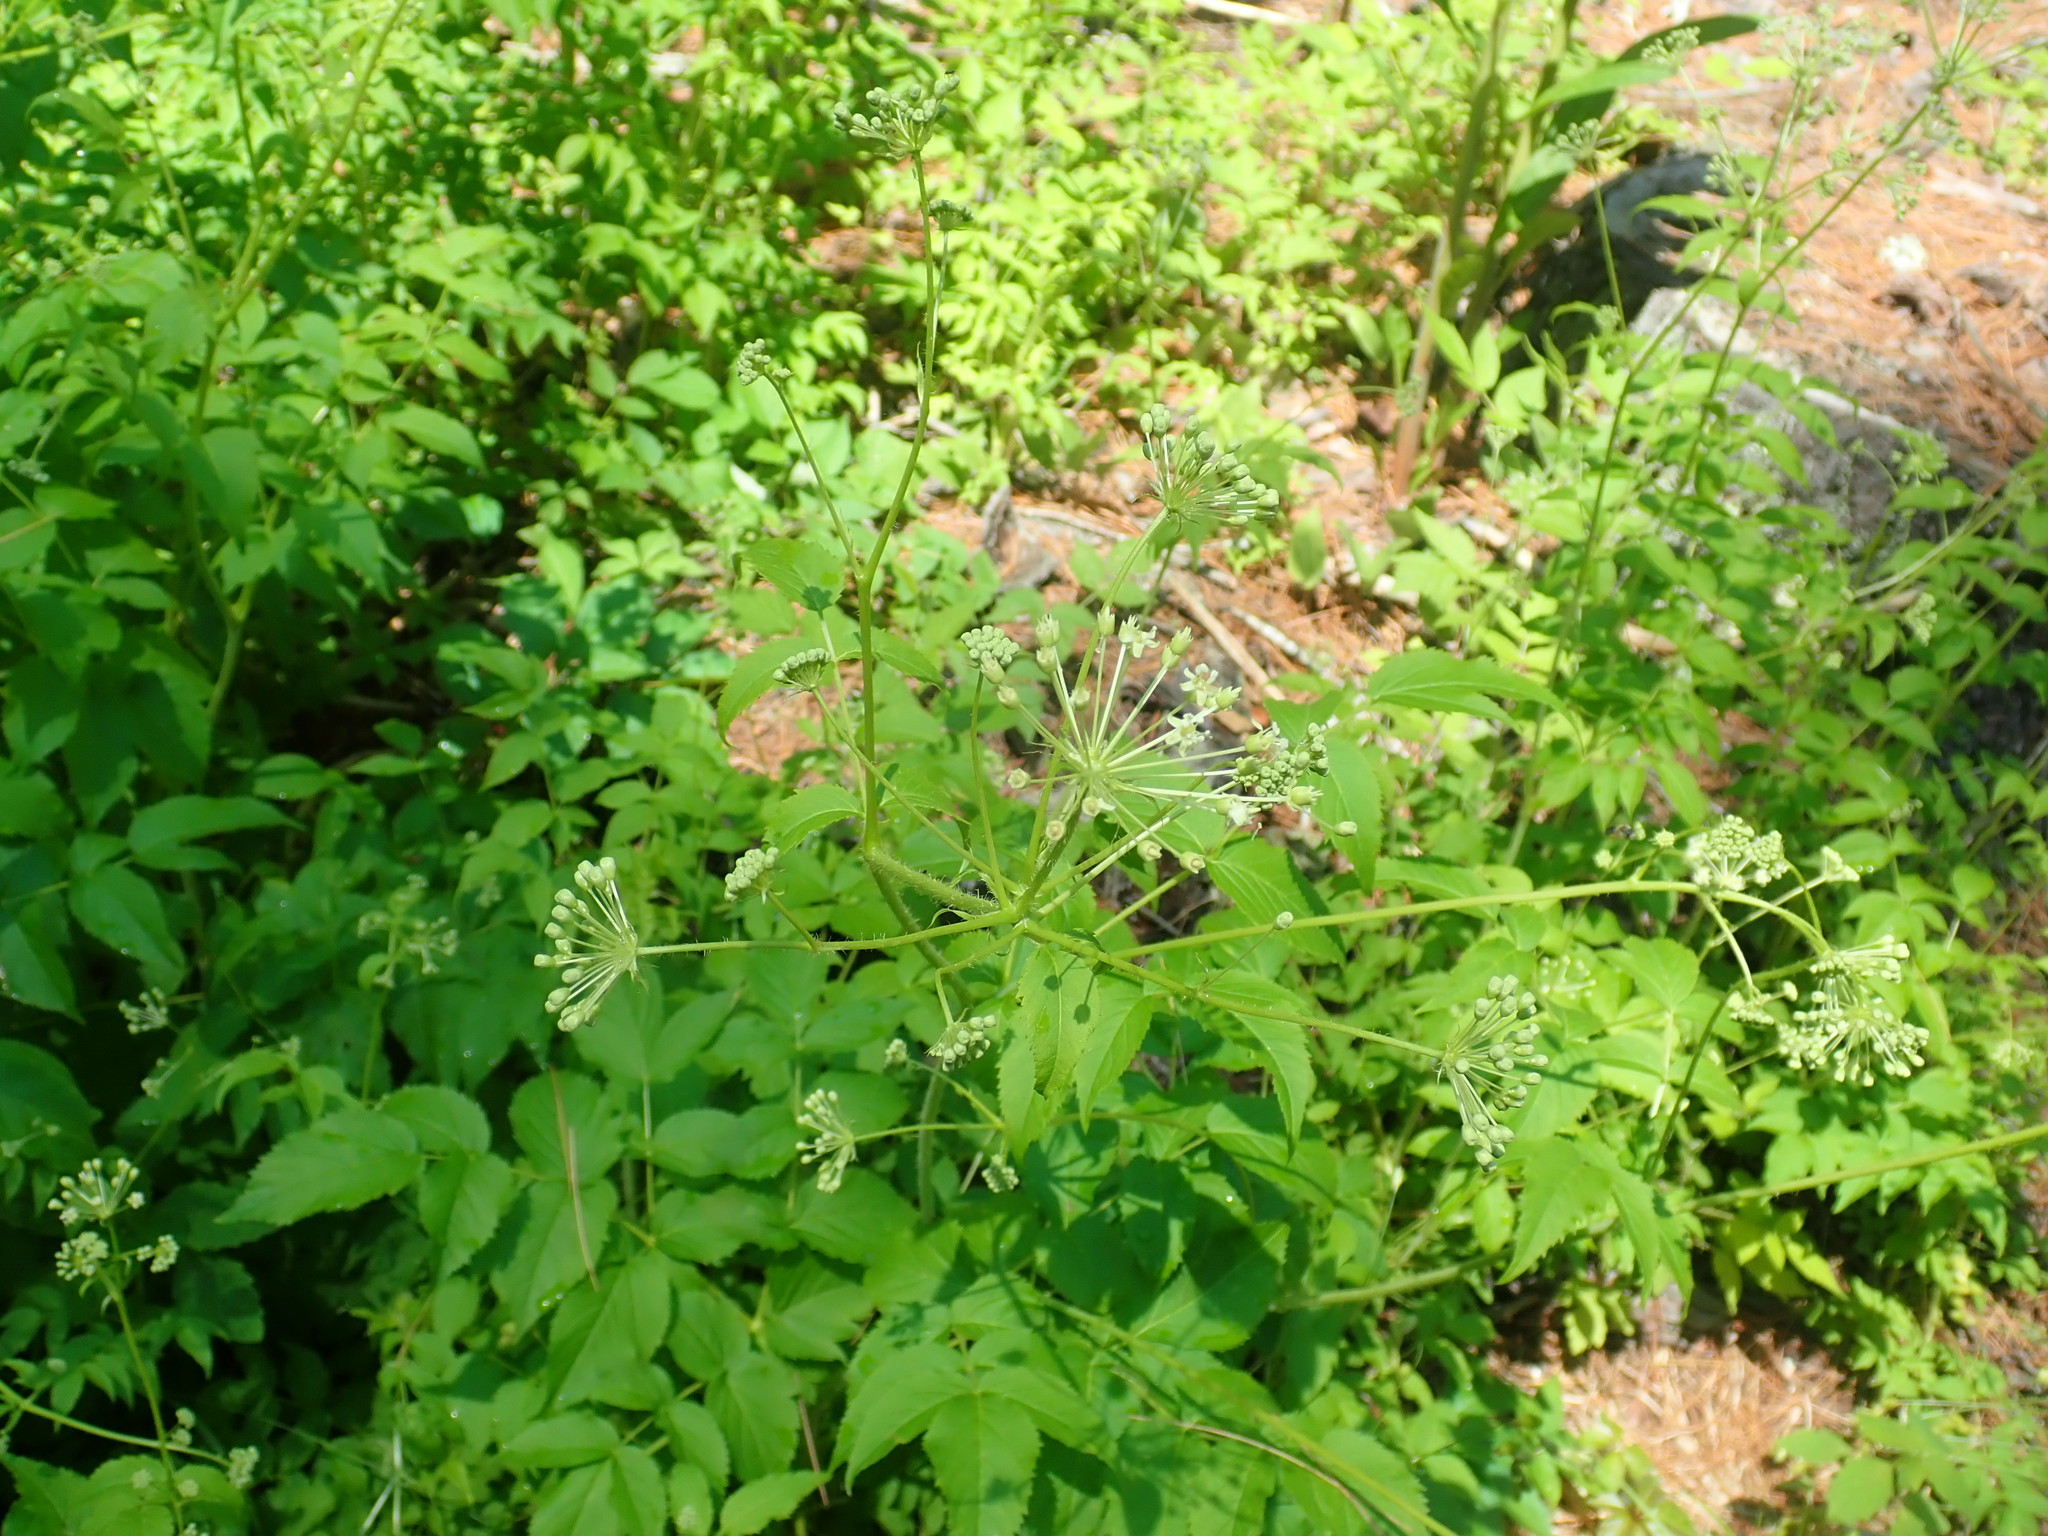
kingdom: Plantae
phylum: Tracheophyta
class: Magnoliopsida
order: Apiales
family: Araliaceae
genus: Aralia
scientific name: Aralia hispida
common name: Bristly sarsaparilla
